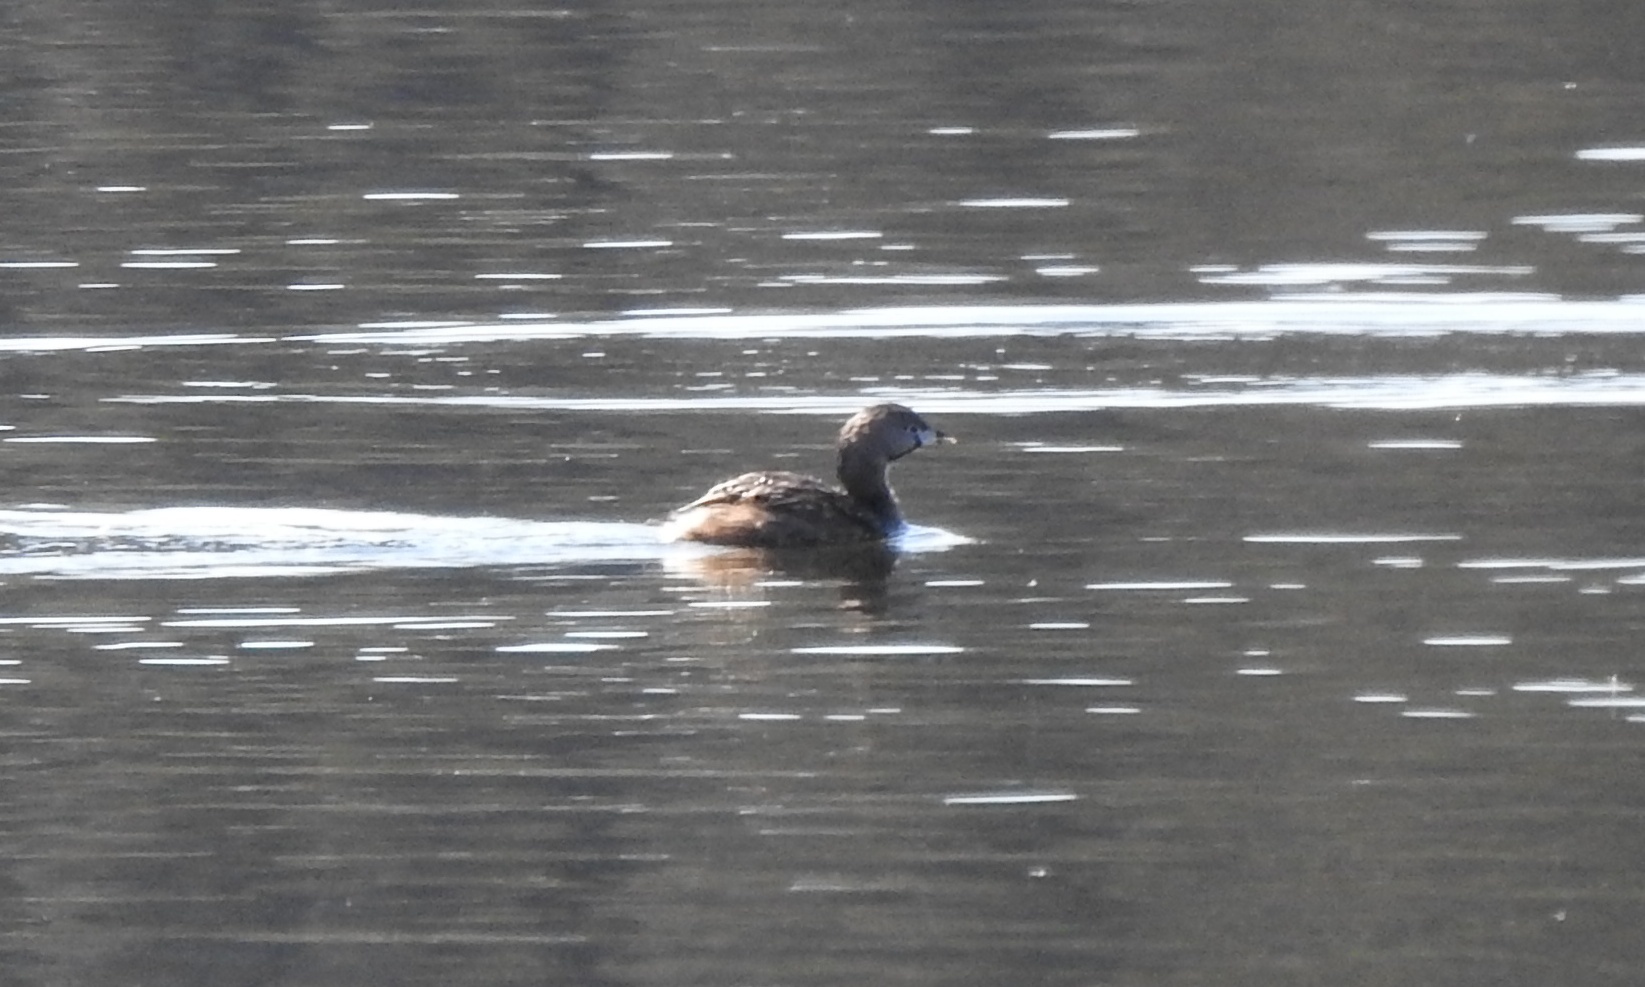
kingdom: Animalia
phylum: Chordata
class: Aves
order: Podicipediformes
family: Podicipedidae
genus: Podilymbus
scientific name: Podilymbus podiceps
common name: Pied-billed grebe
